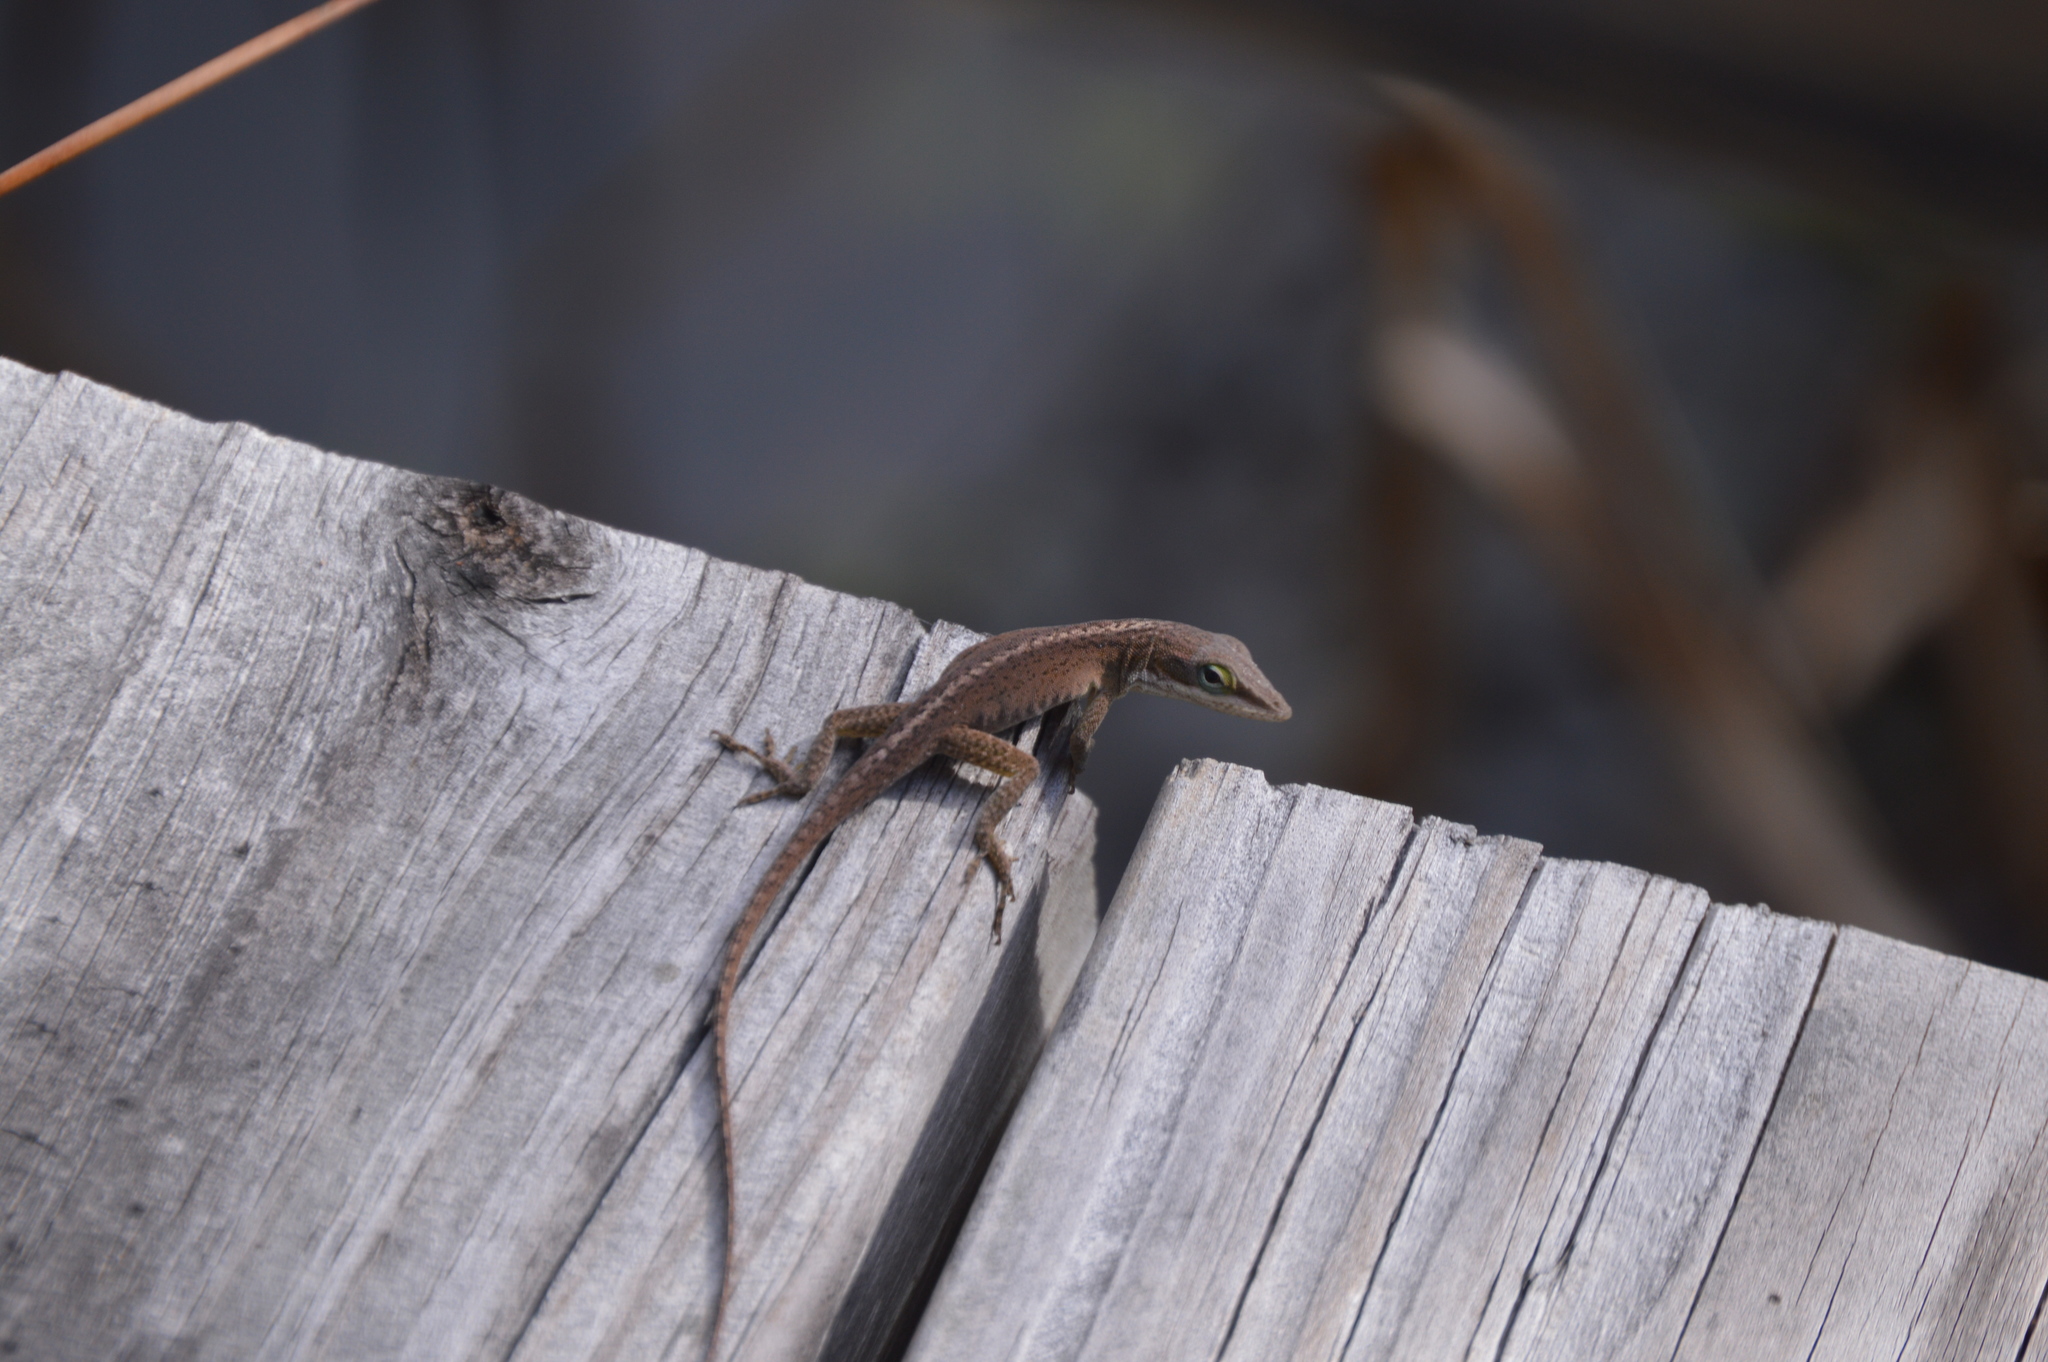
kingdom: Animalia
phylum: Chordata
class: Squamata
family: Dactyloidae
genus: Anolis
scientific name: Anolis carolinensis
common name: Green anole
